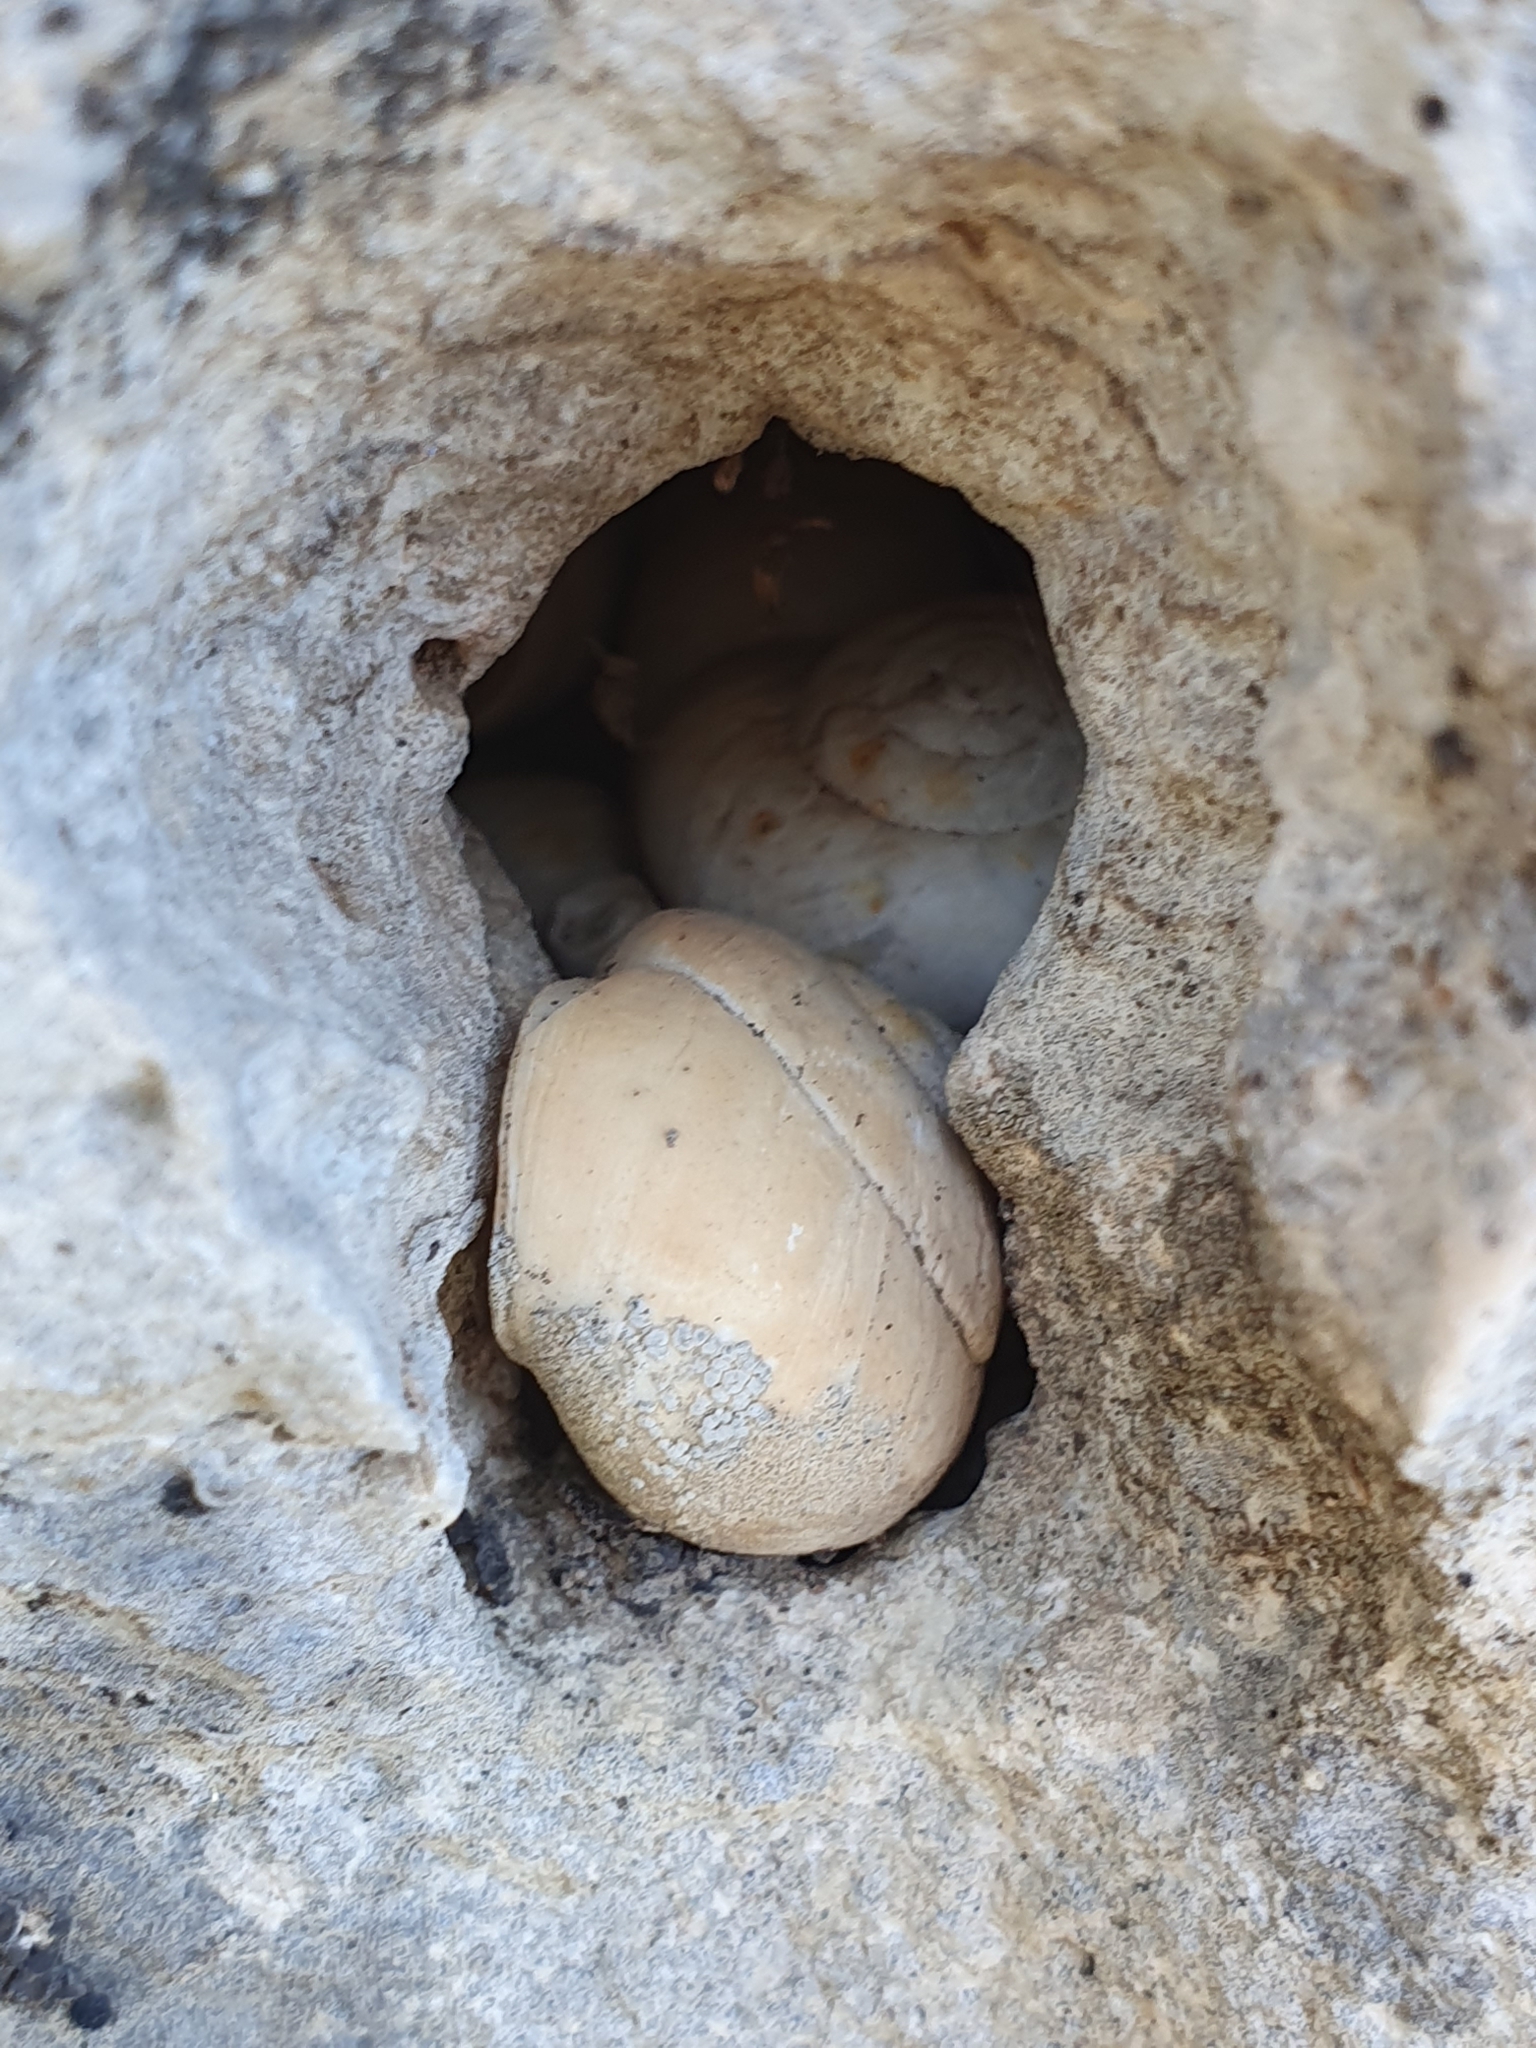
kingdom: Animalia
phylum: Mollusca
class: Gastropoda
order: Stylommatophora
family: Sphincterochilidae
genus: Sphincterochila
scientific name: Sphincterochila candidissima
